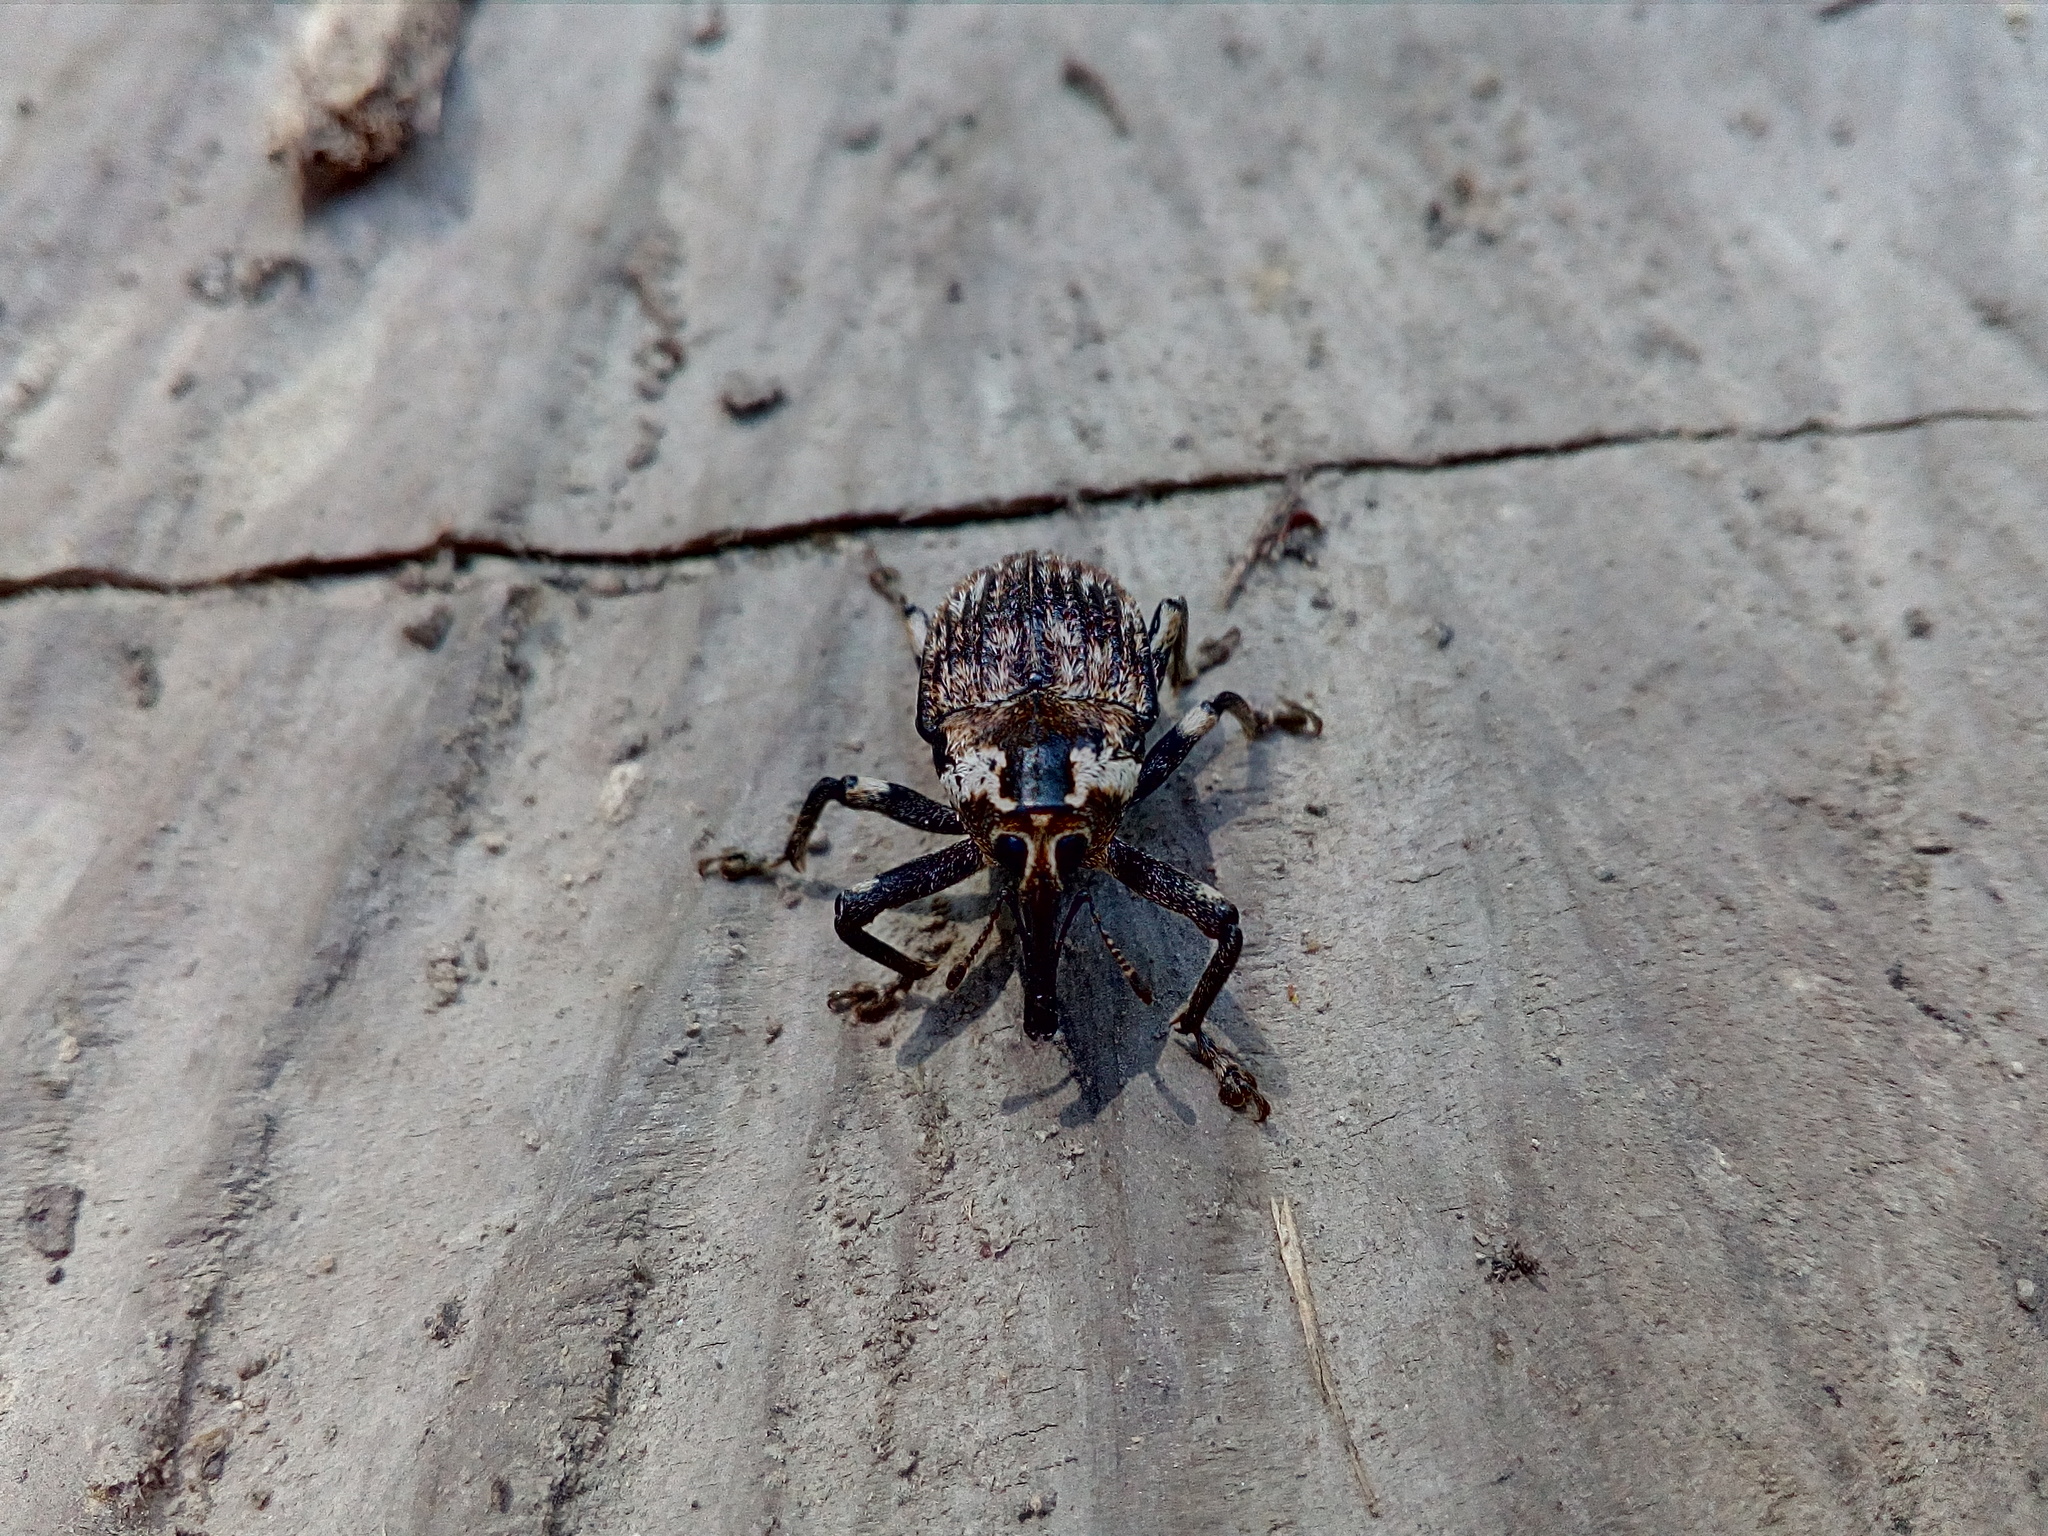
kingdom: Animalia
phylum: Arthropoda
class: Insecta
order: Coleoptera
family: Curculionidae
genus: Rhynchodes
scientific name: Rhynchodes ursus
